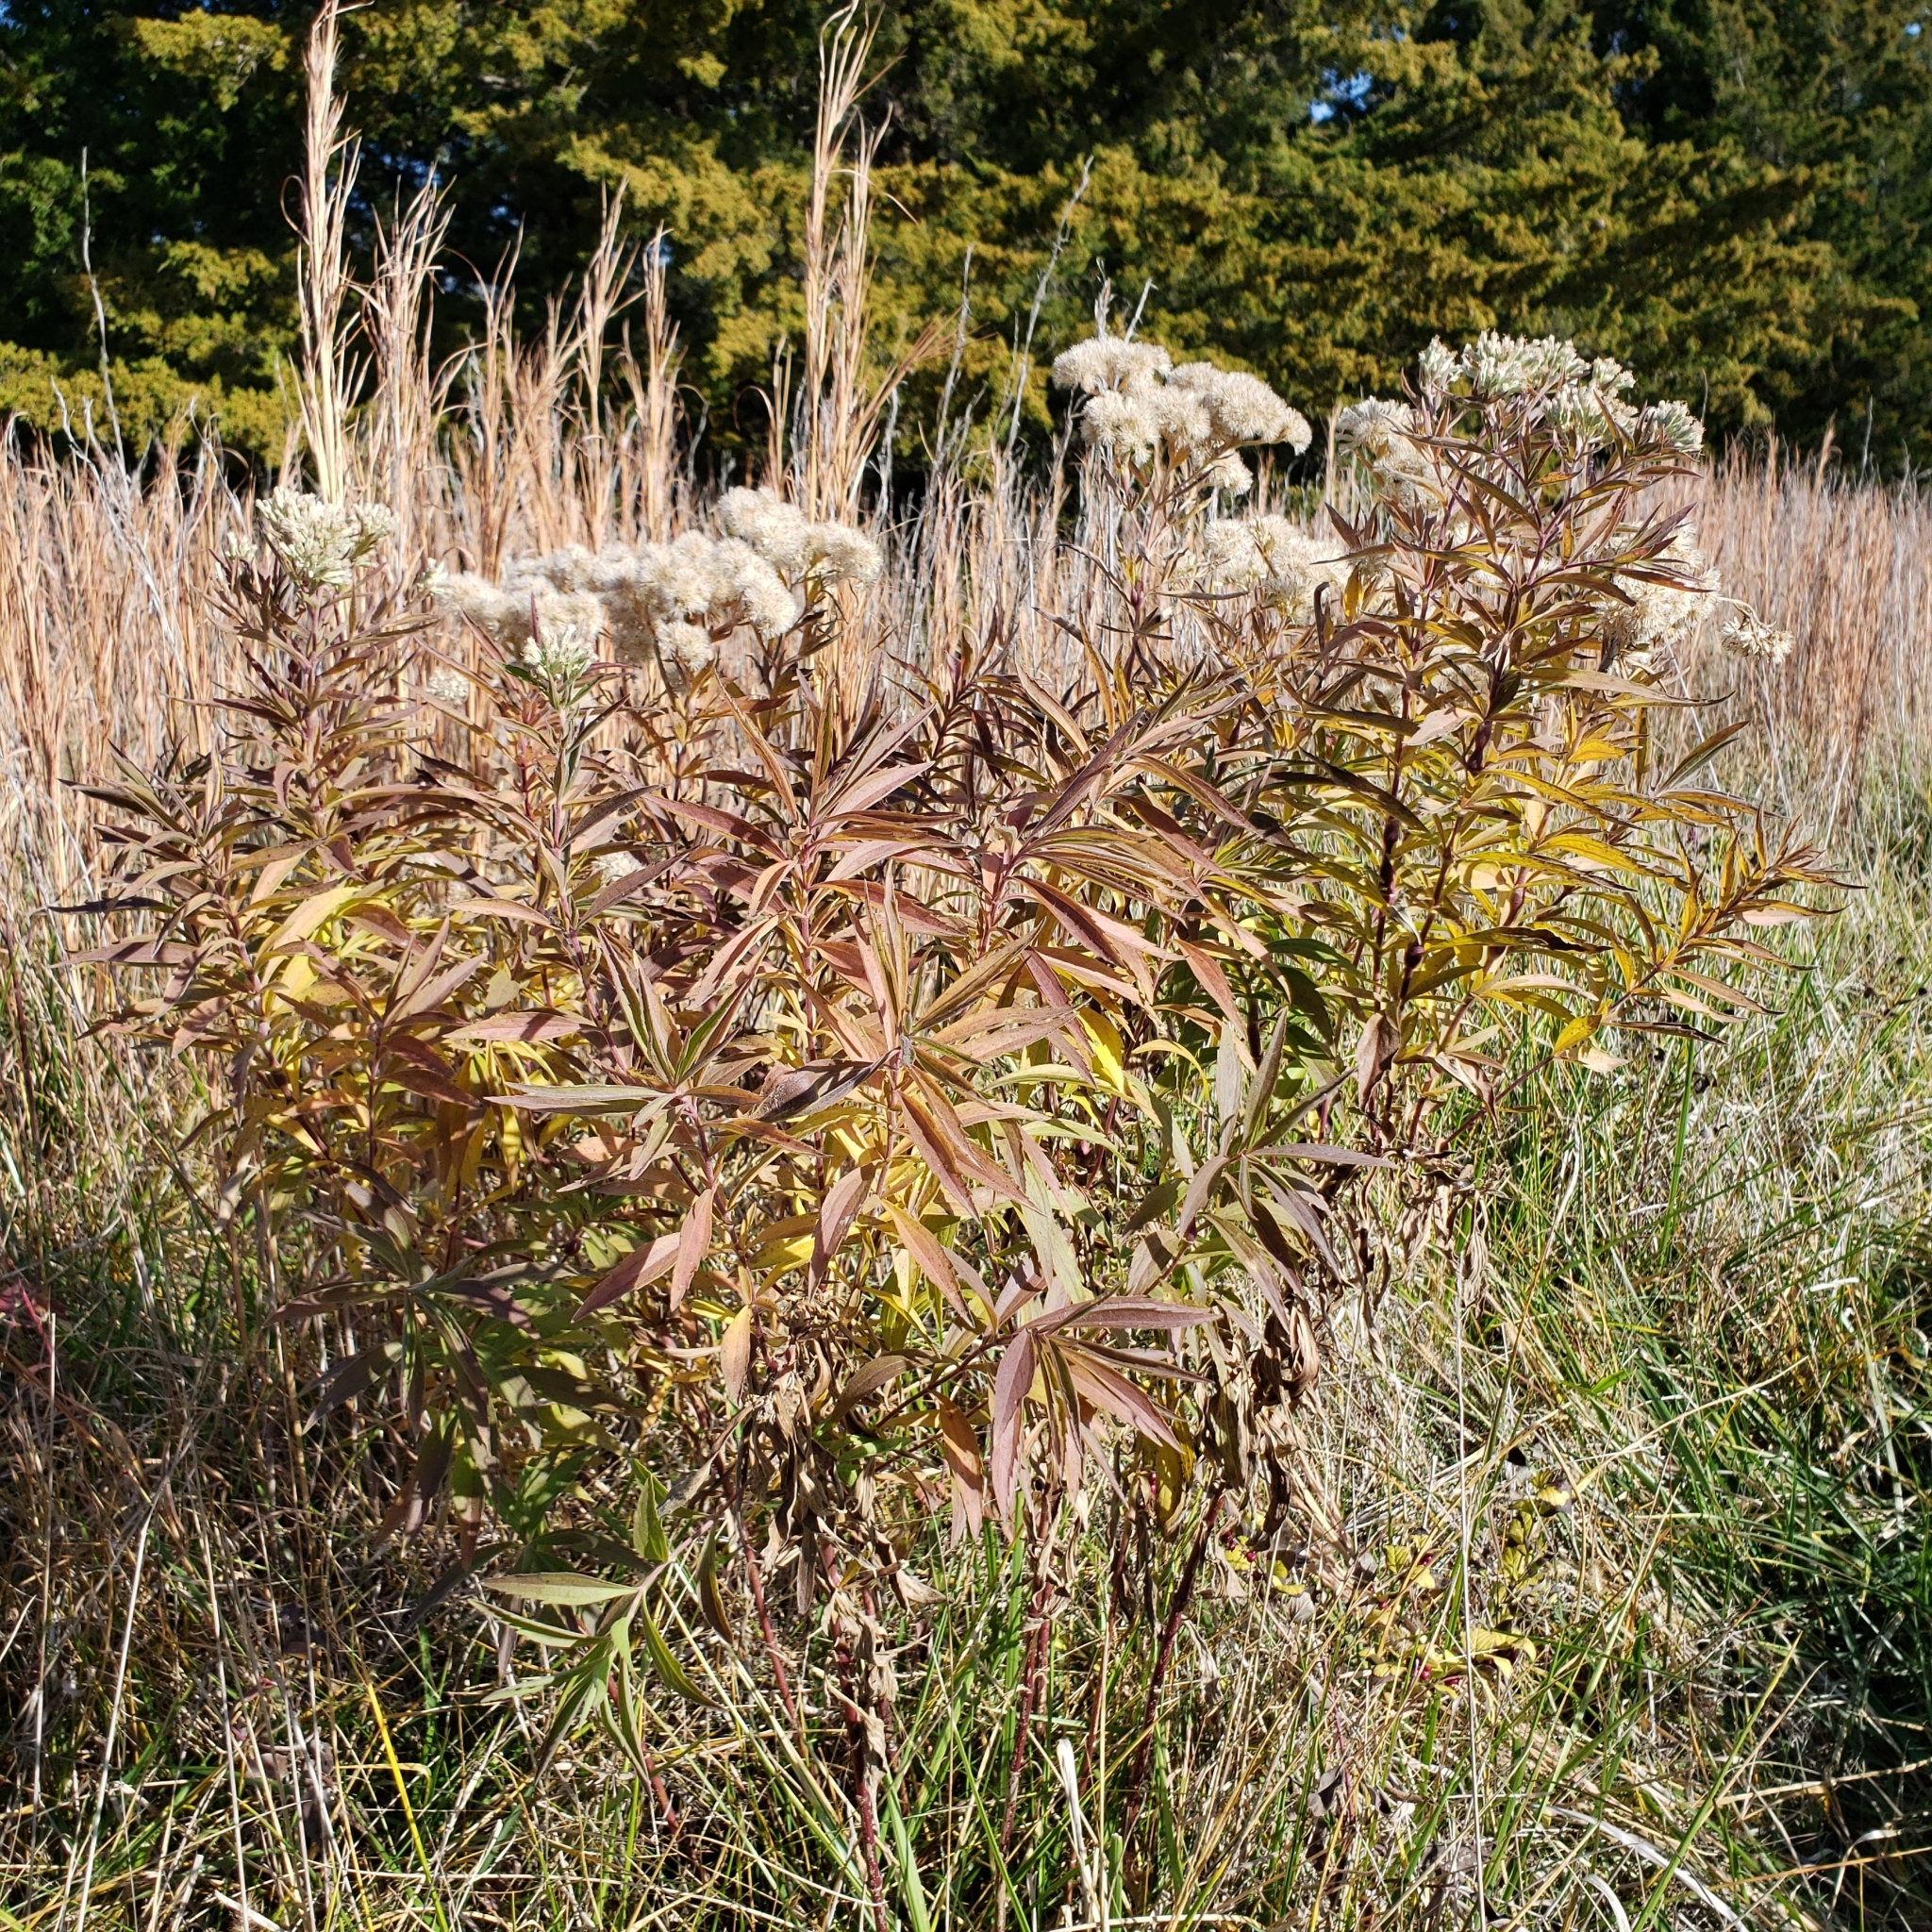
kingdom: Plantae
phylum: Tracheophyta
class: Magnoliopsida
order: Asterales
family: Asteraceae
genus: Eupatorium
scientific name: Eupatorium altissimum
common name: Tall thoroughwort
